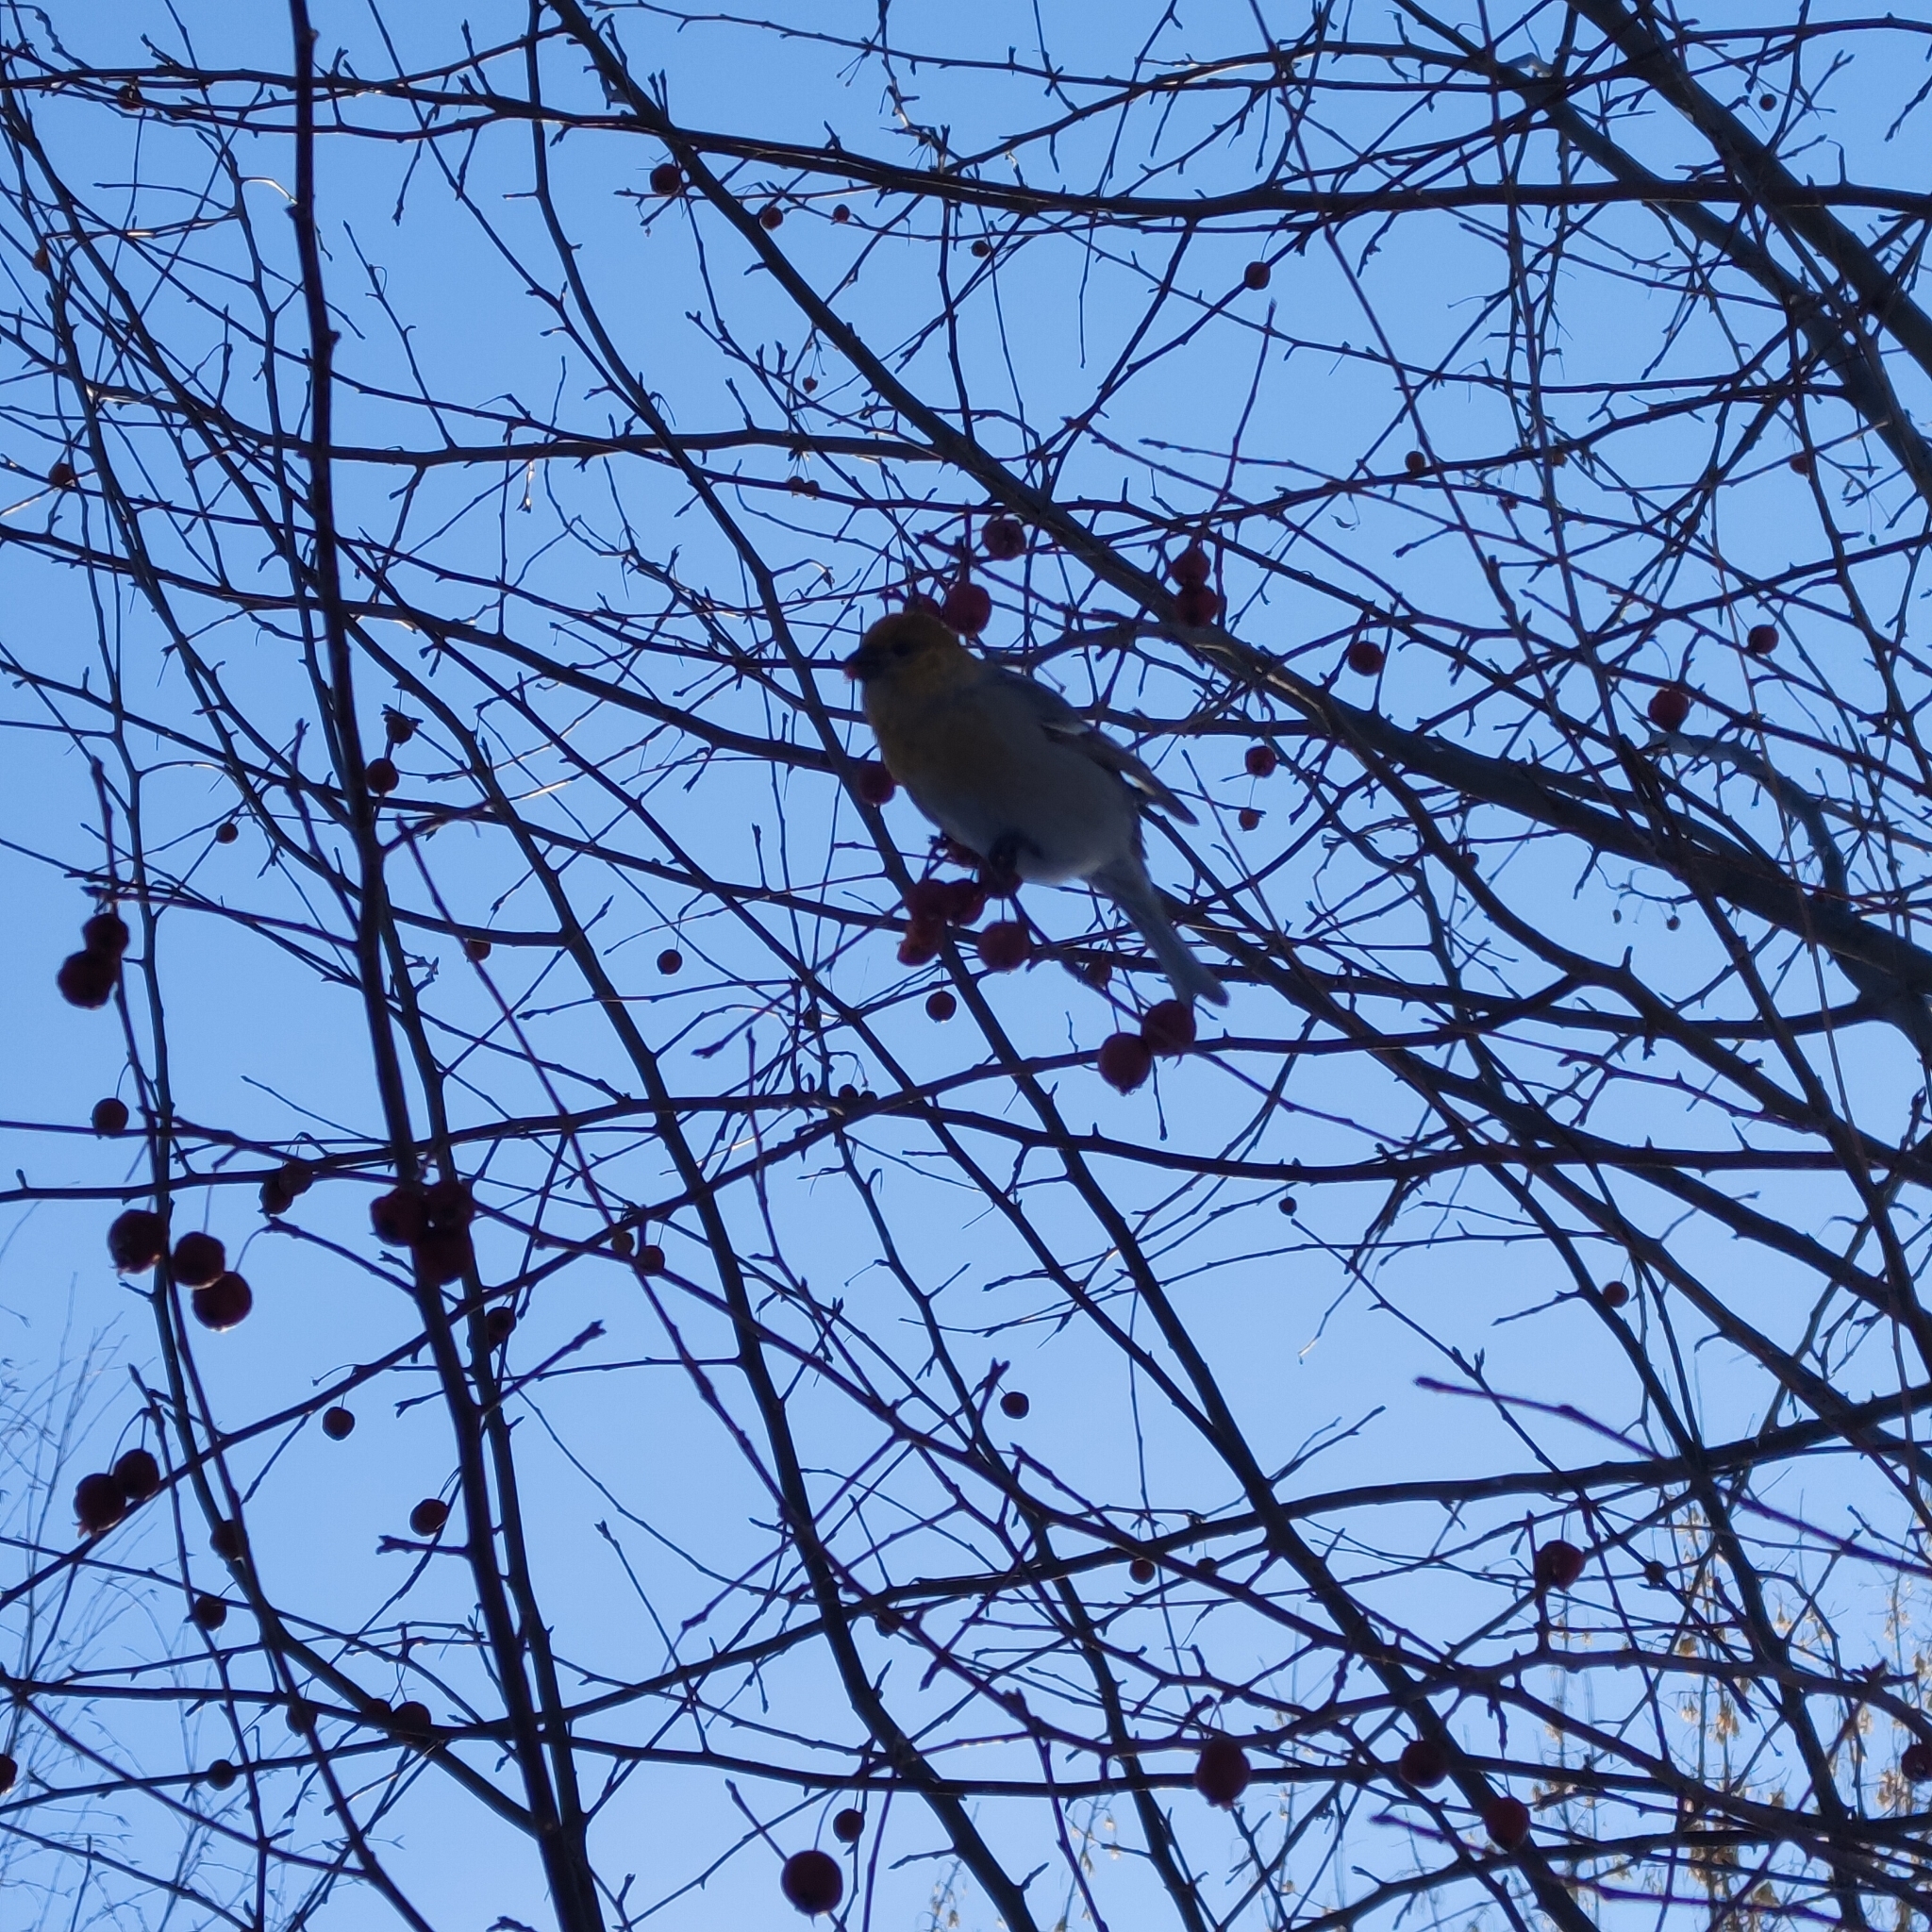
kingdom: Animalia
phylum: Chordata
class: Aves
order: Passeriformes
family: Fringillidae
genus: Pinicola
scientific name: Pinicola enucleator
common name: Pine grosbeak
